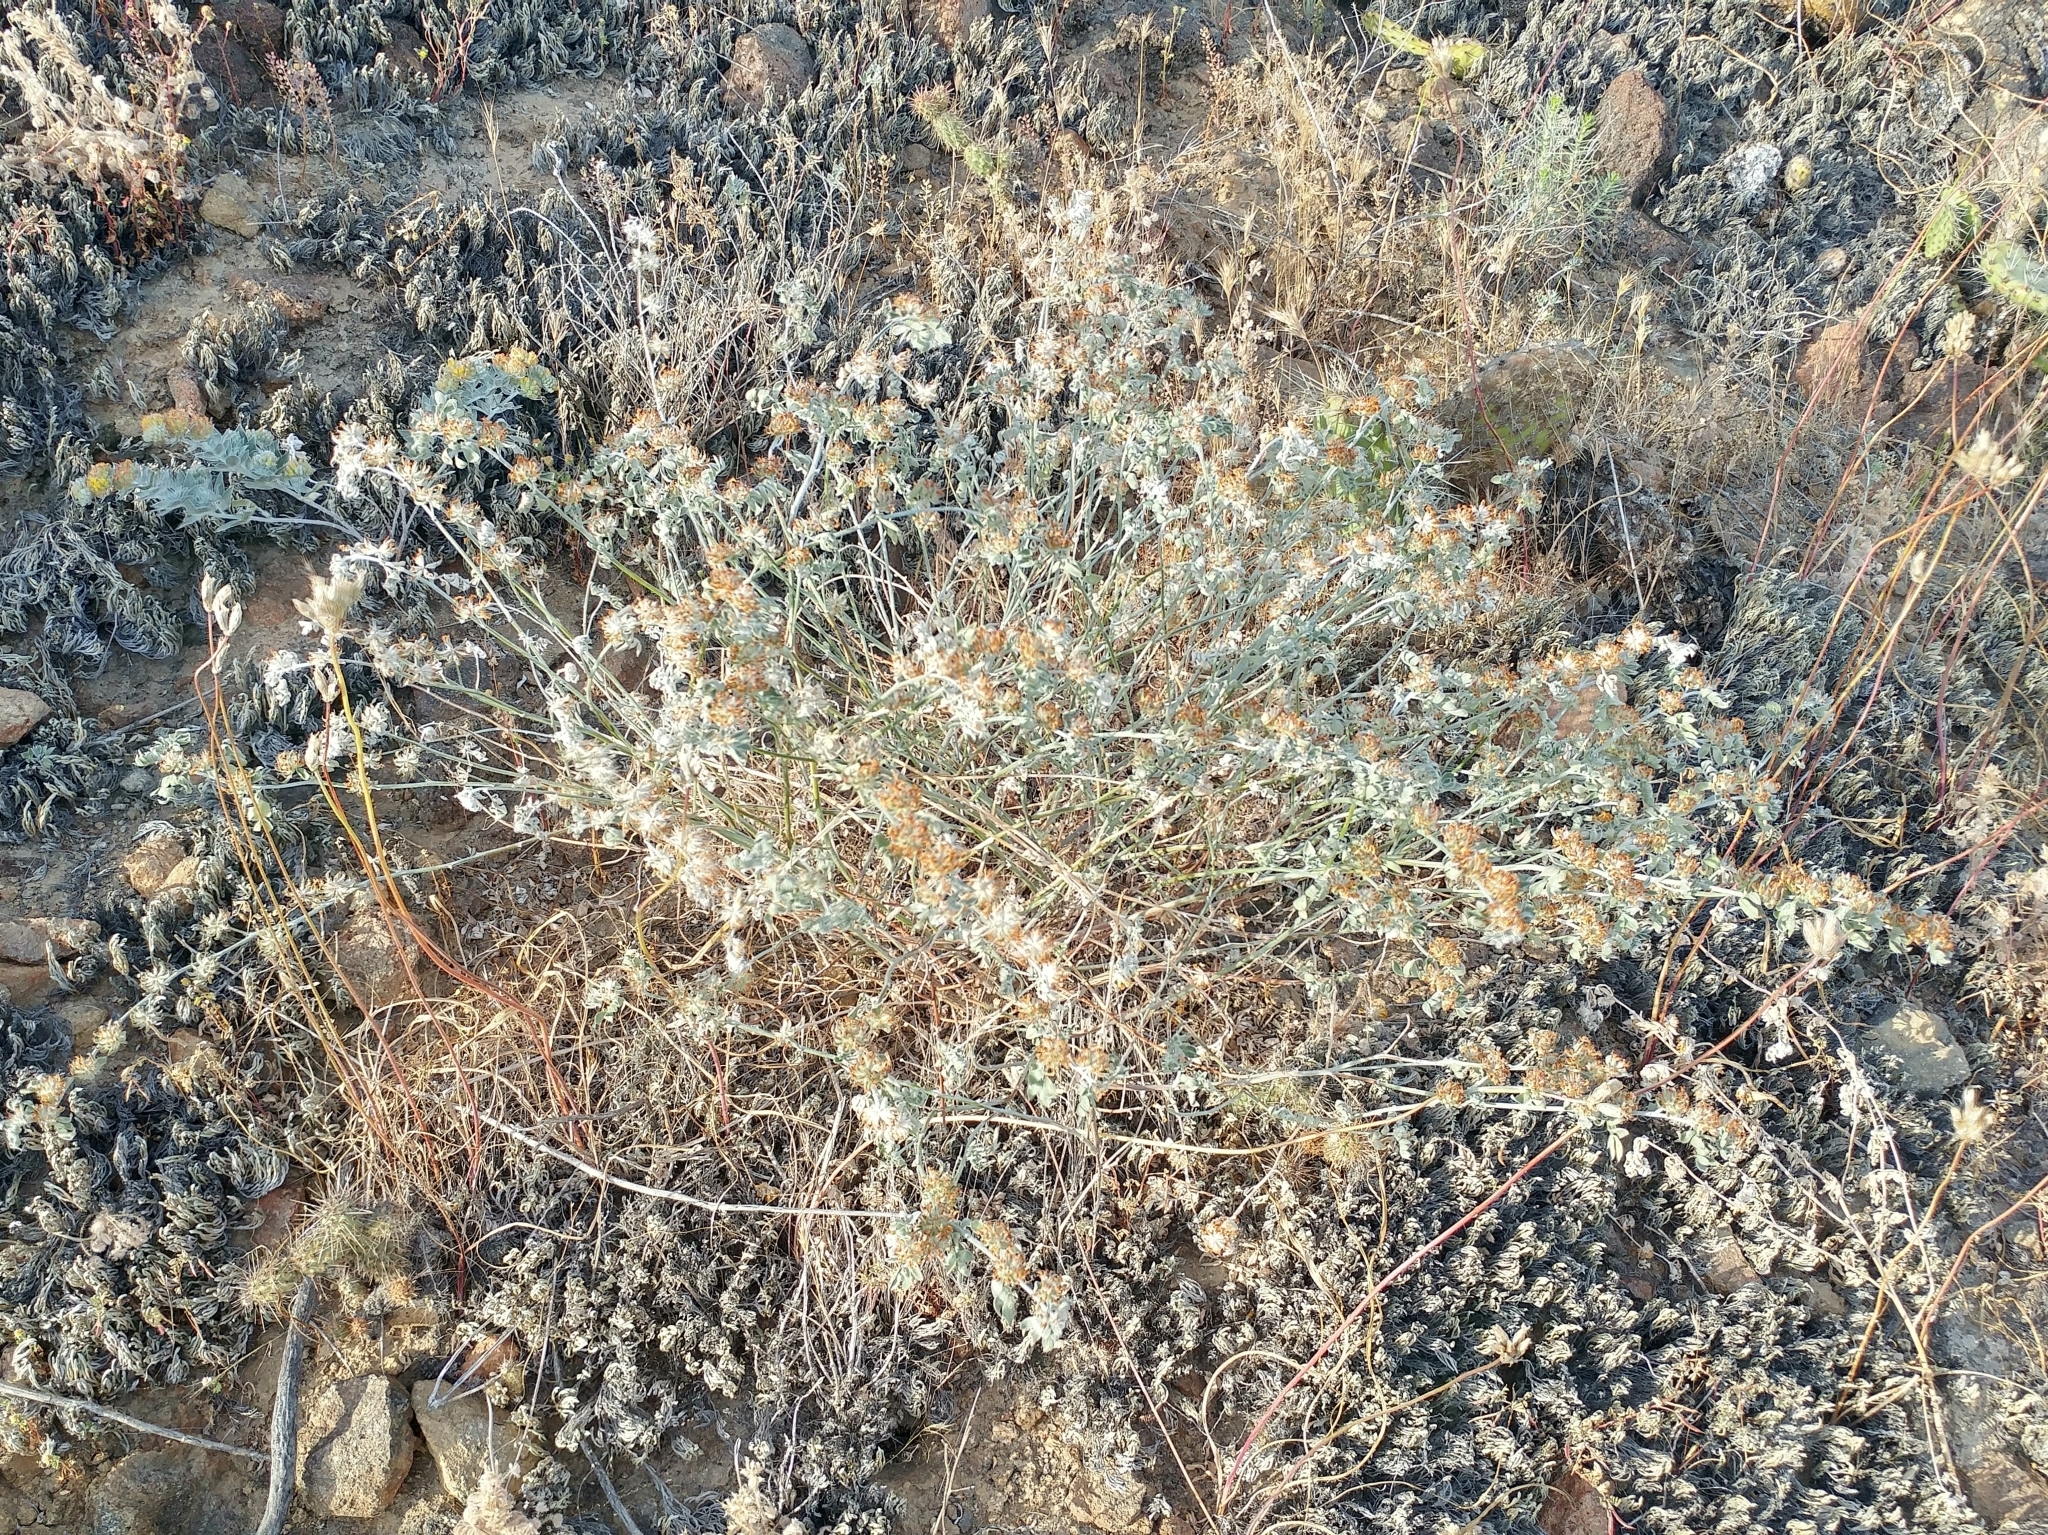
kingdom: Plantae
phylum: Tracheophyta
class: Magnoliopsida
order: Fabales
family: Fabaceae
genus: Acmispon
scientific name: Acmispon argophyllus
